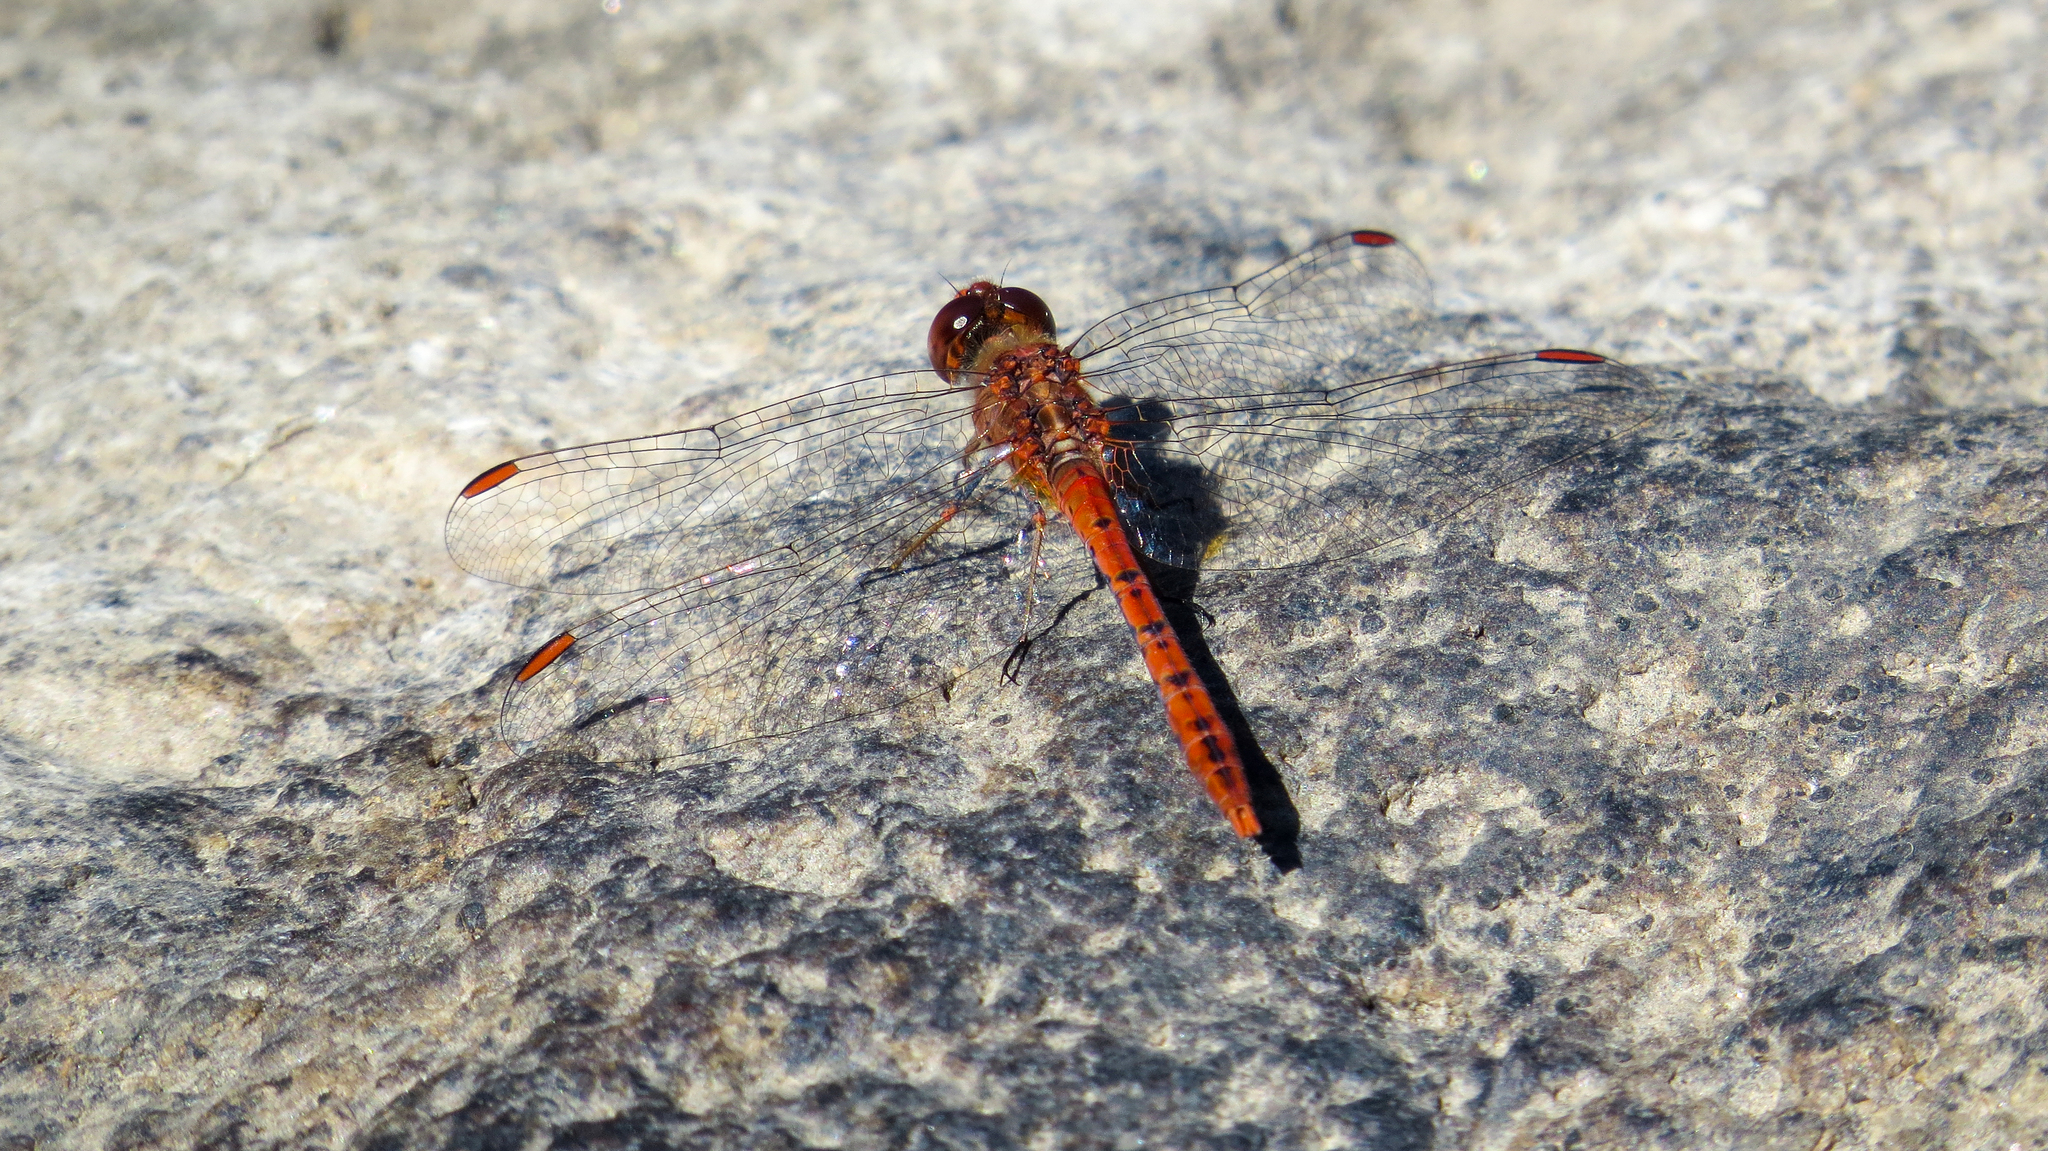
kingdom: Animalia
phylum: Arthropoda
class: Insecta
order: Odonata
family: Libellulidae
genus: Diplacodes
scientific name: Diplacodes bipunctata
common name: Red percher dragonfly
